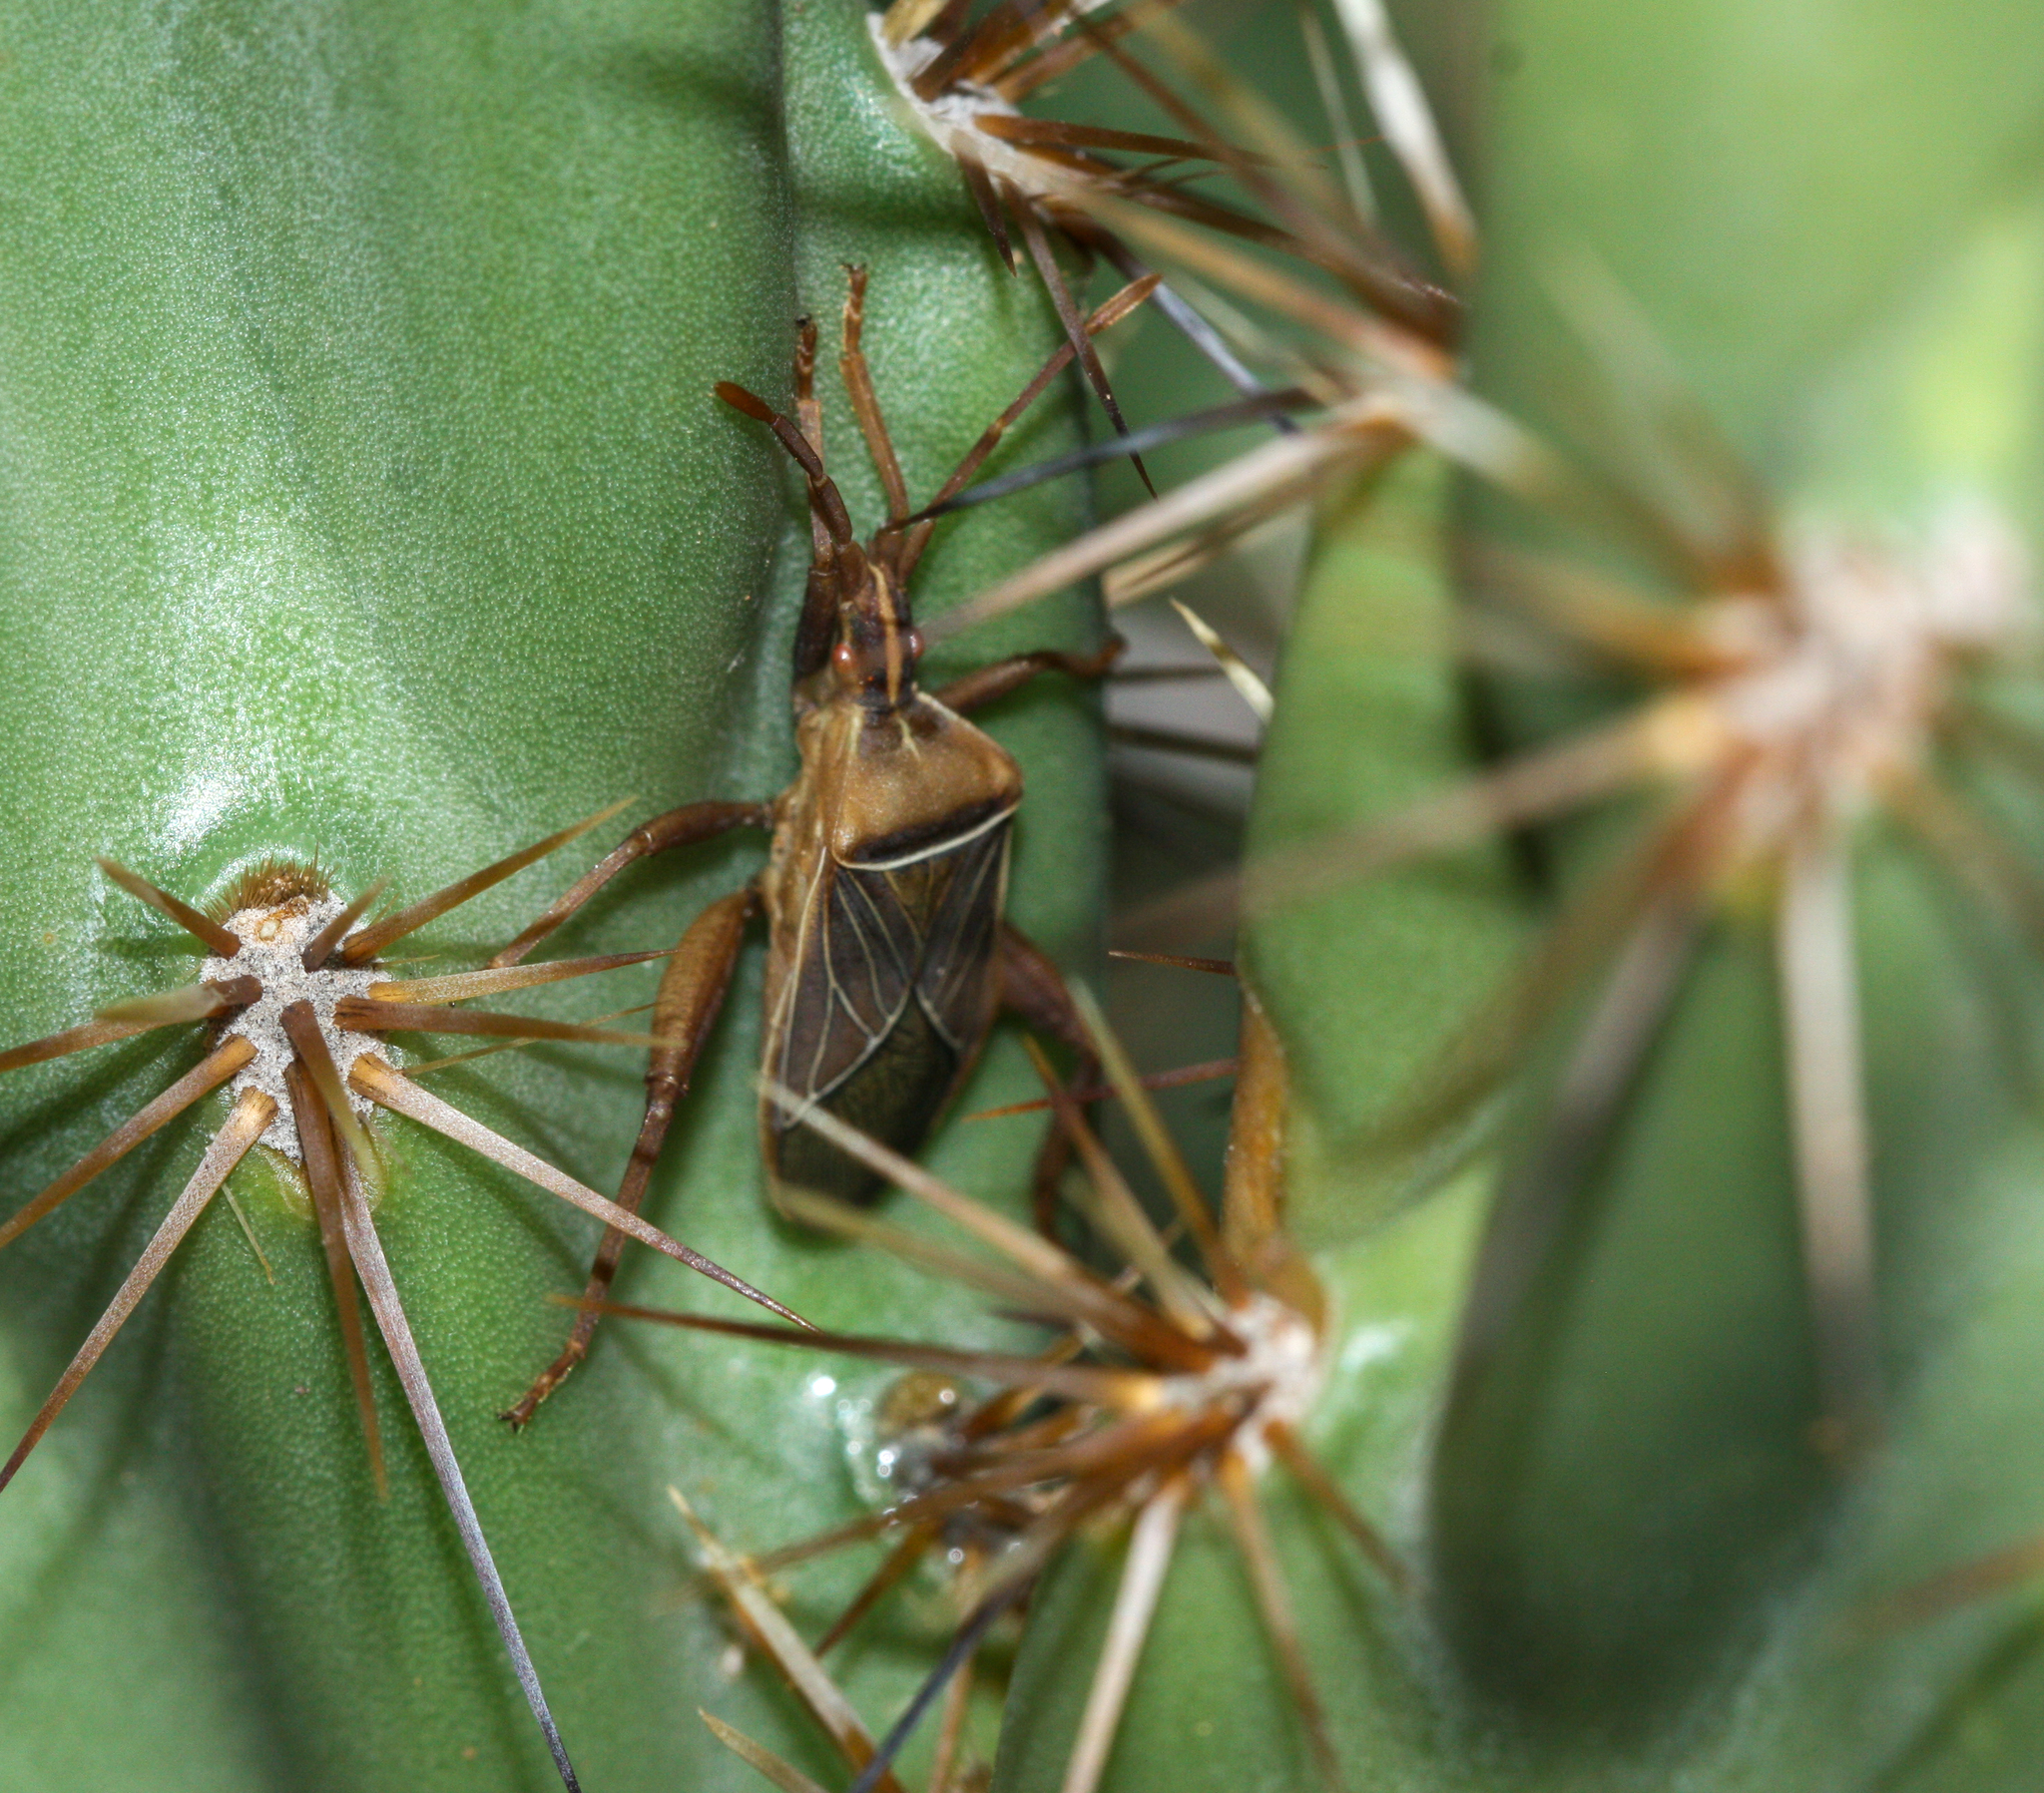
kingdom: Animalia
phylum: Arthropoda
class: Insecta
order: Hemiptera
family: Coreidae
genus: Chelinidea
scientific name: Chelinidea vittiger
